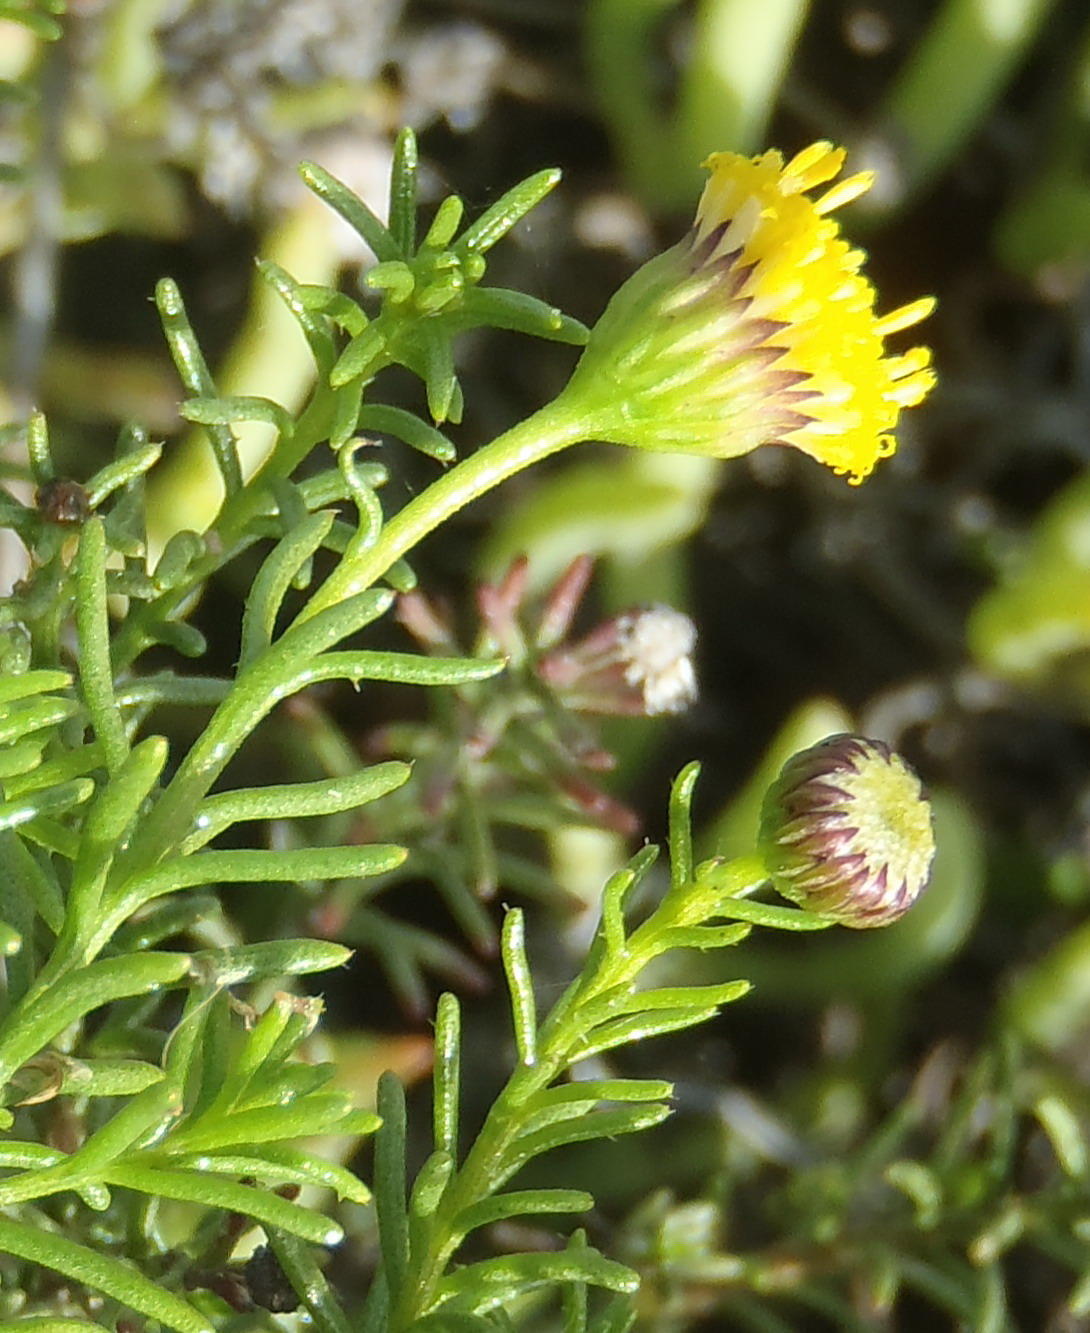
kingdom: Plantae
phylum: Tracheophyta
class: Magnoliopsida
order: Asterales
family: Asteraceae
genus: Chrysocoma
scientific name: Chrysocoma ciliata
